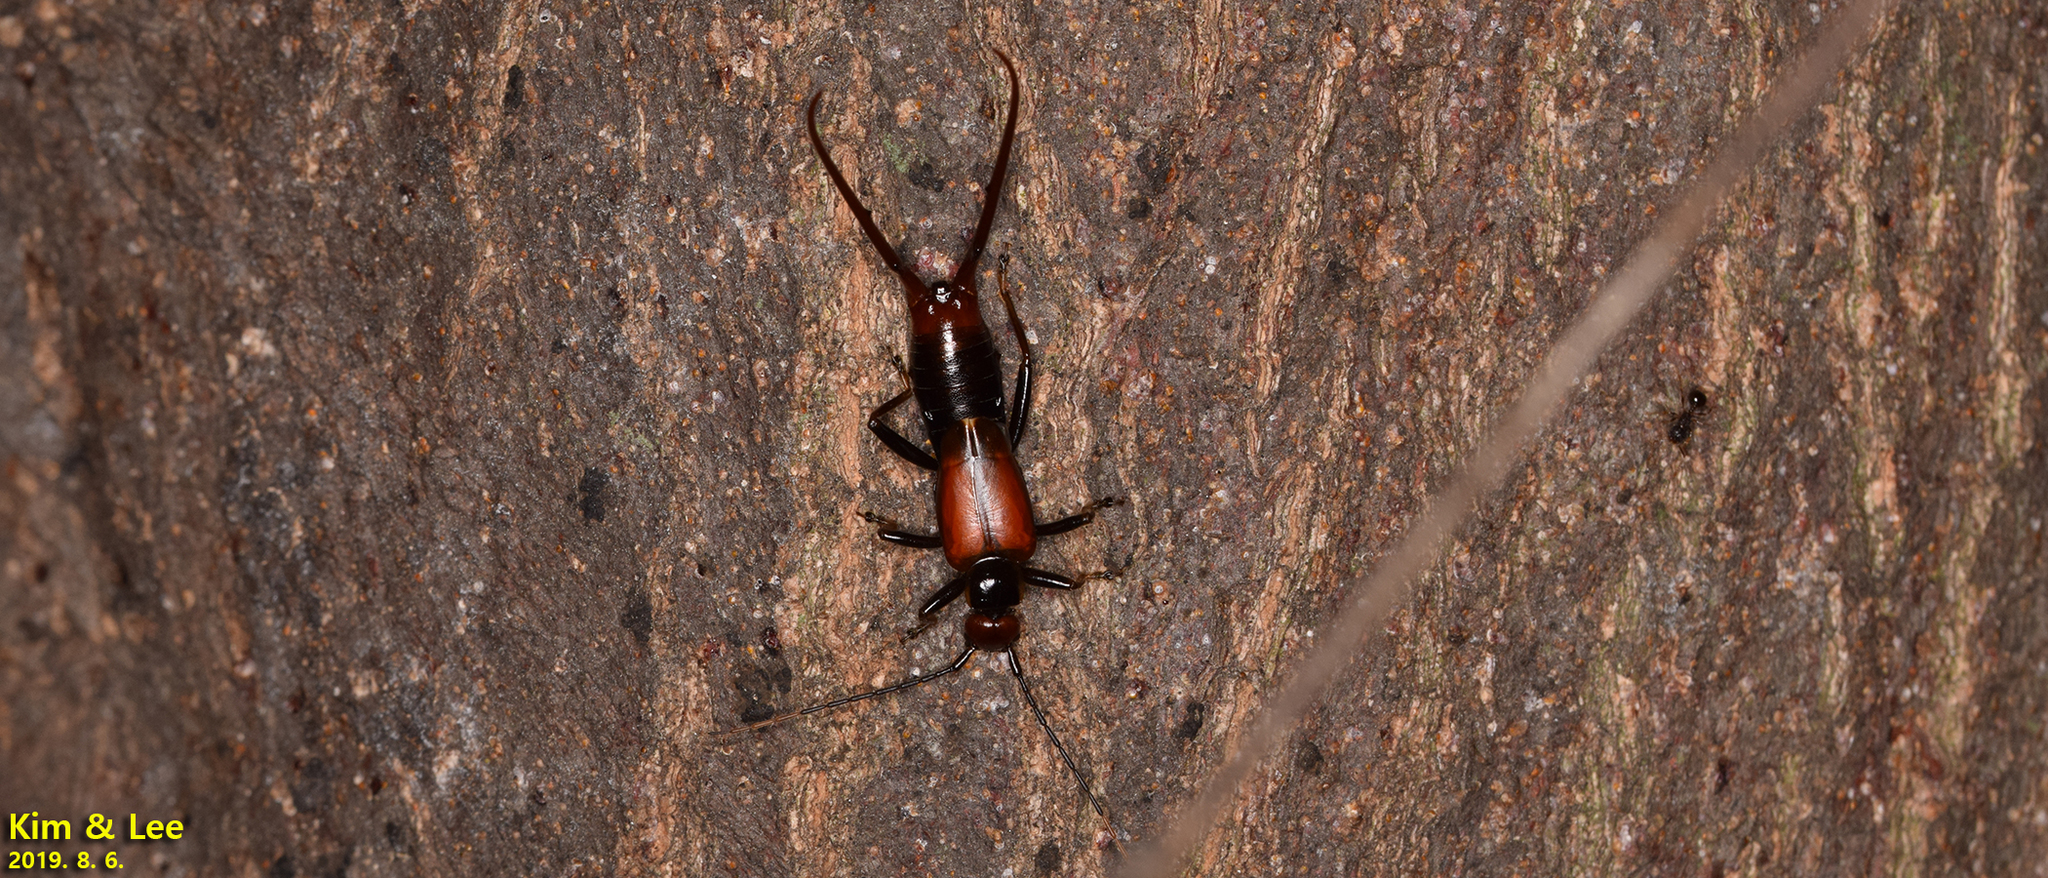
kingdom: Animalia
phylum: Arthropoda
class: Insecta
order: Dermaptera
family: Forficulidae
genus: Timomenus
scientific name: Timomenus komarovi
